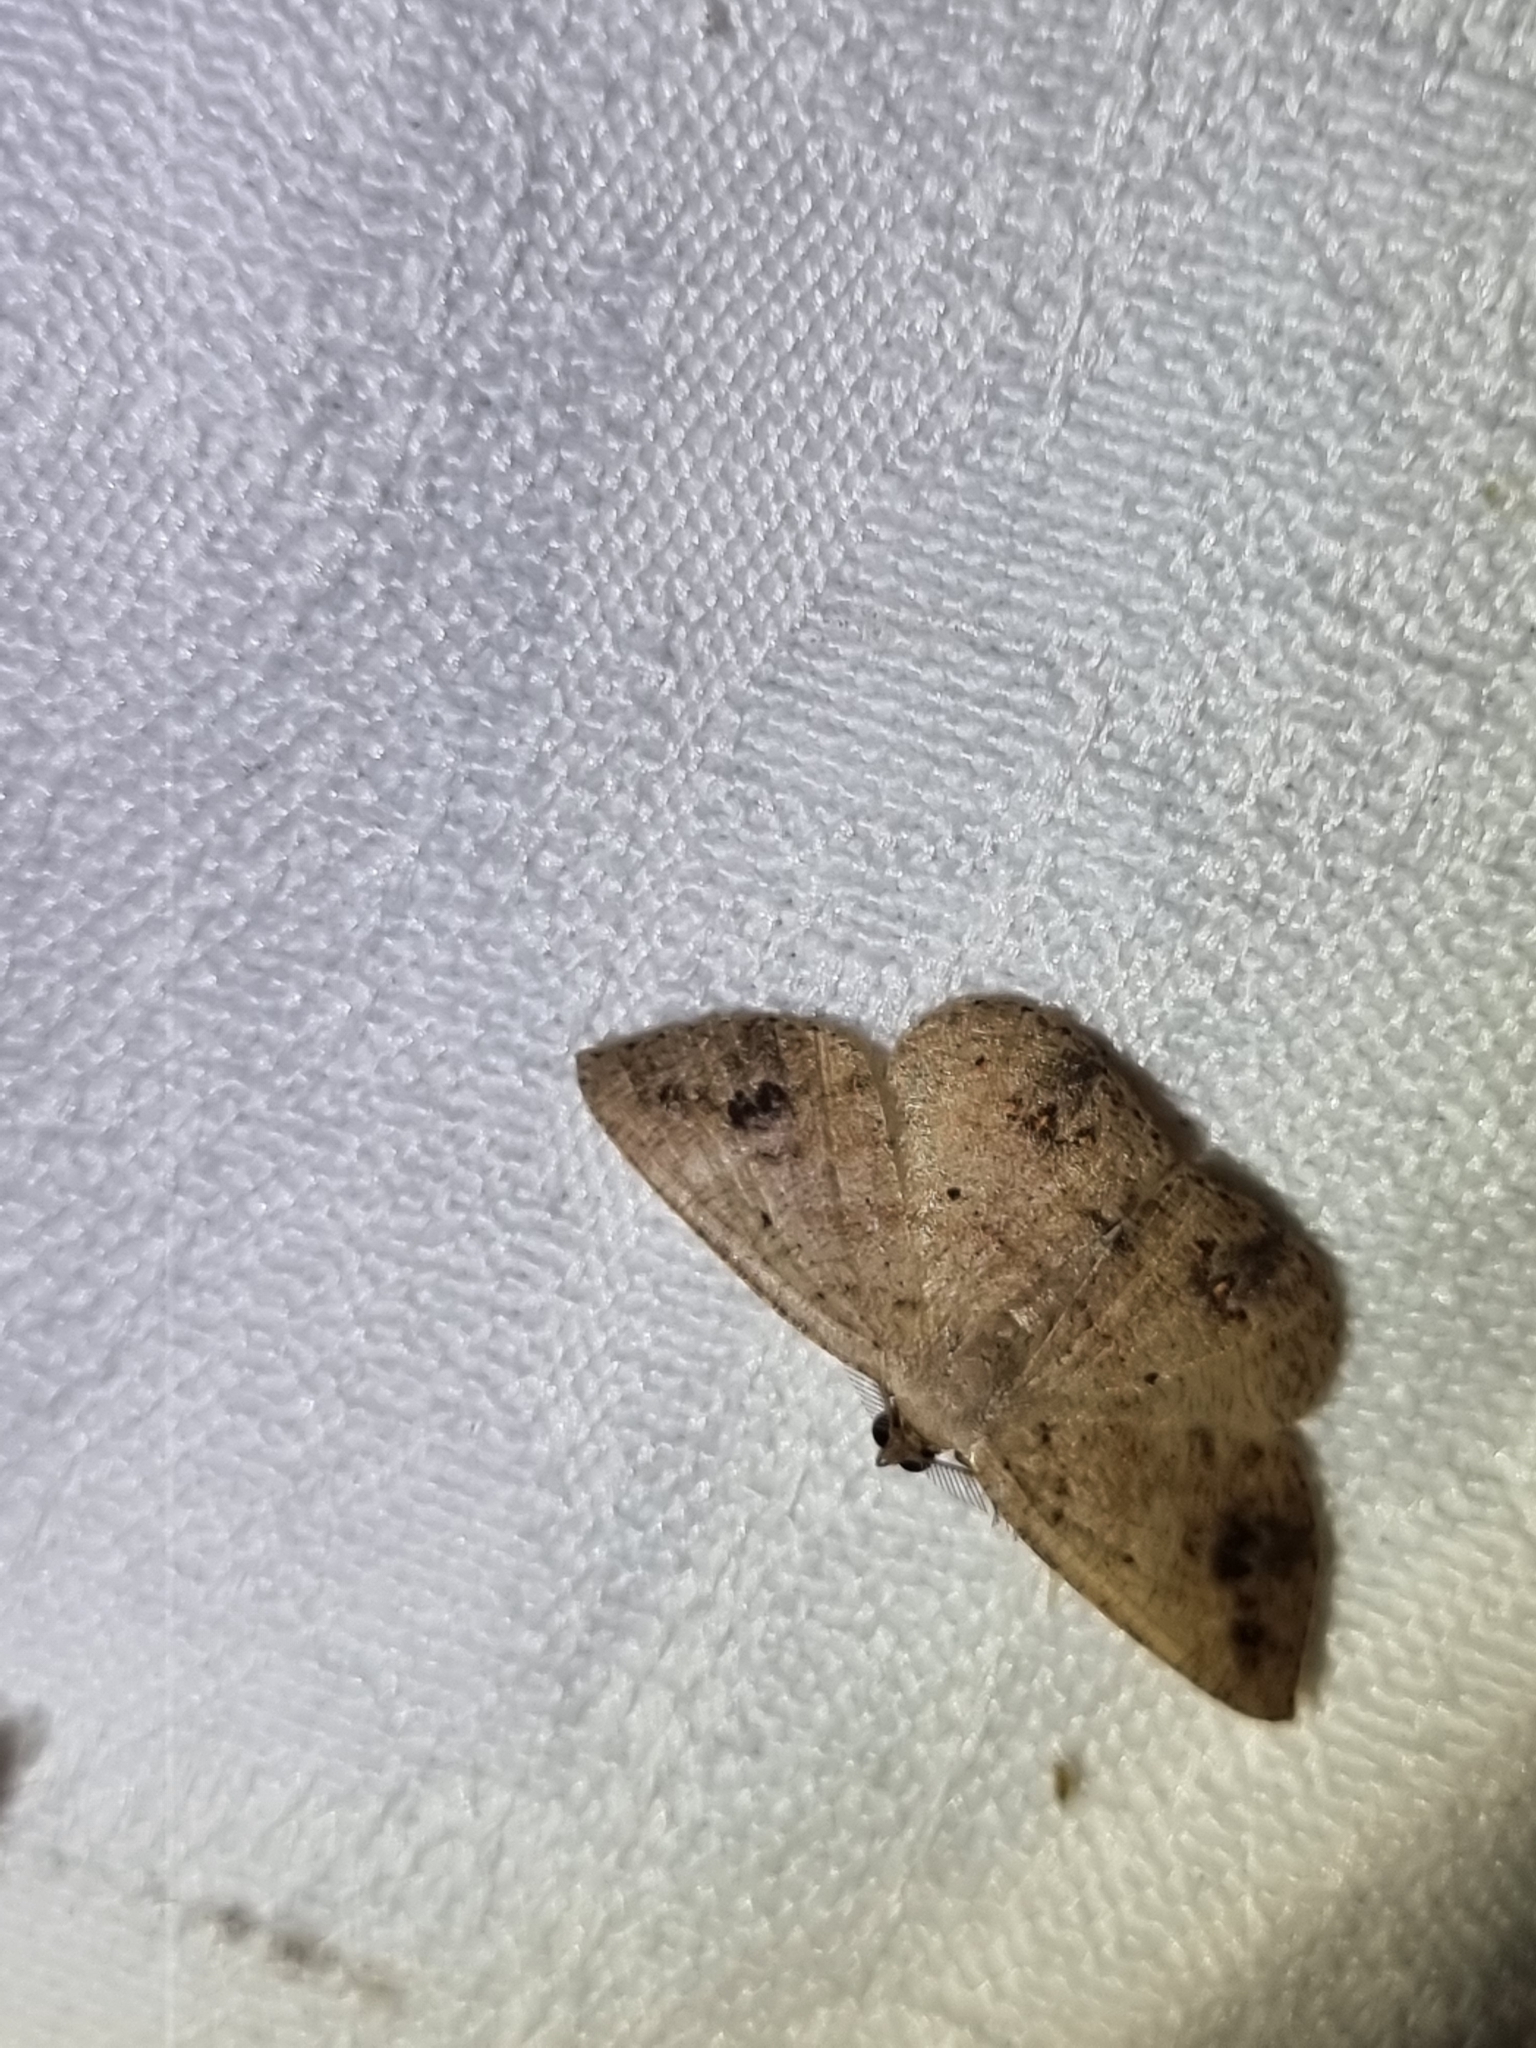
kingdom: Animalia
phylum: Arthropoda
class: Insecta
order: Lepidoptera
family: Geometridae
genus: Casbia
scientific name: Casbia rectaria
